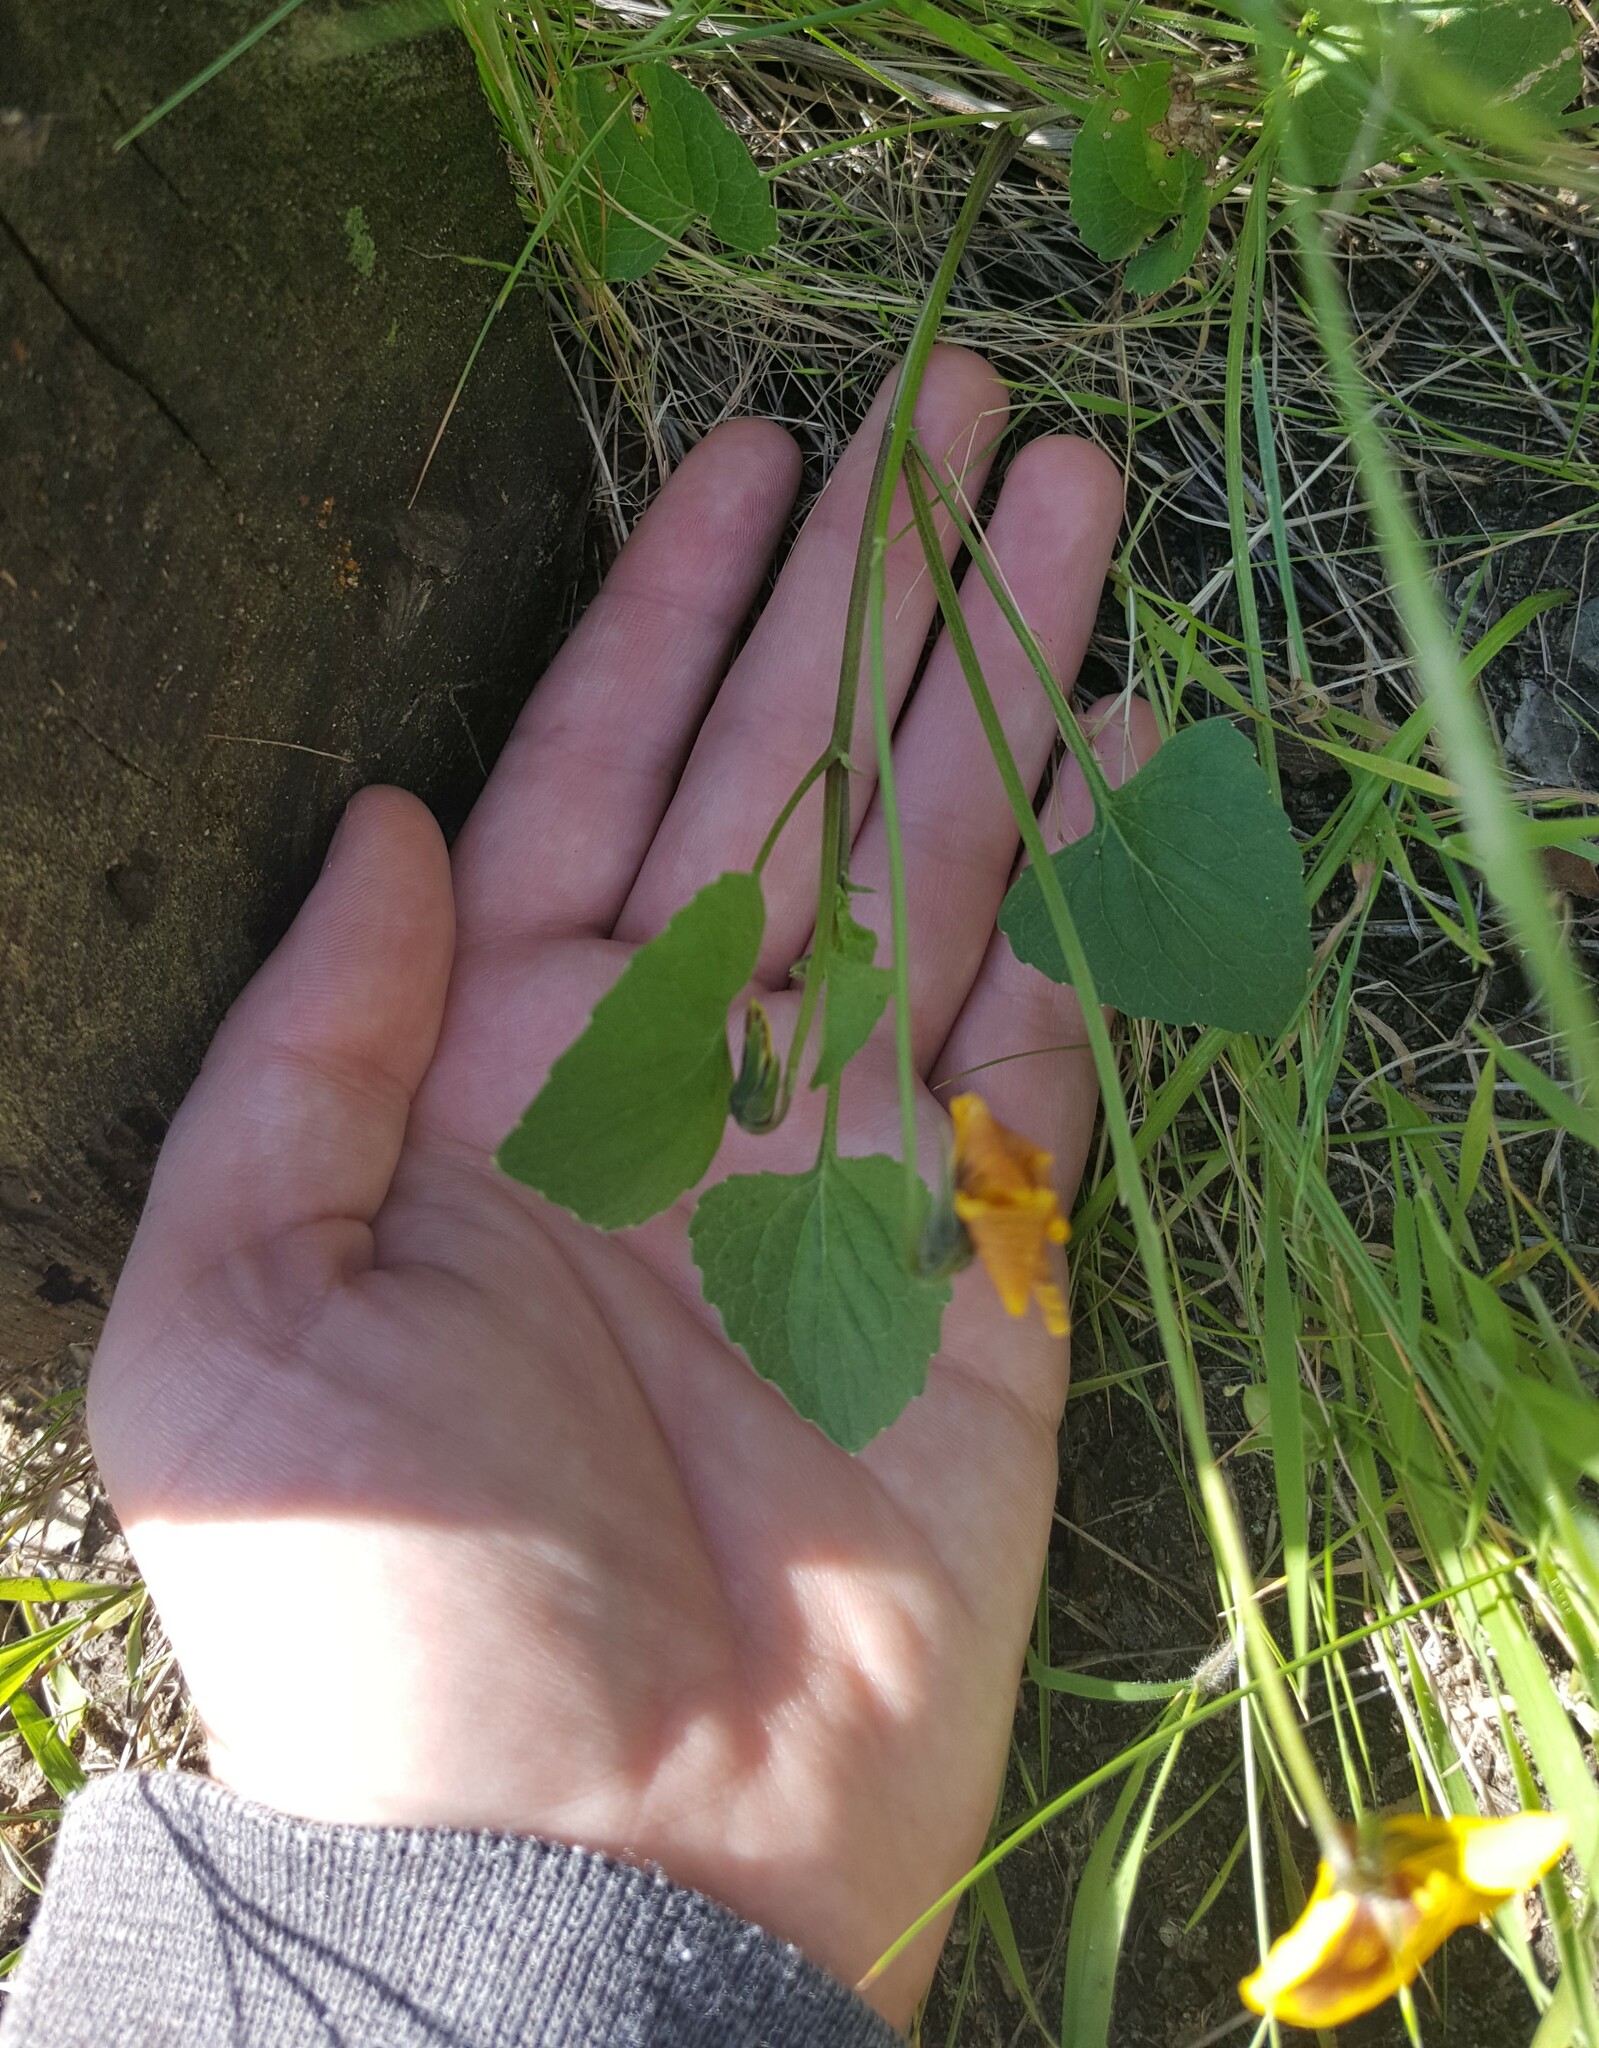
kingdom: Plantae
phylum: Tracheophyta
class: Magnoliopsida
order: Malpighiales
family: Violaceae
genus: Viola
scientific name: Viola pedunculata
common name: California golden violet
